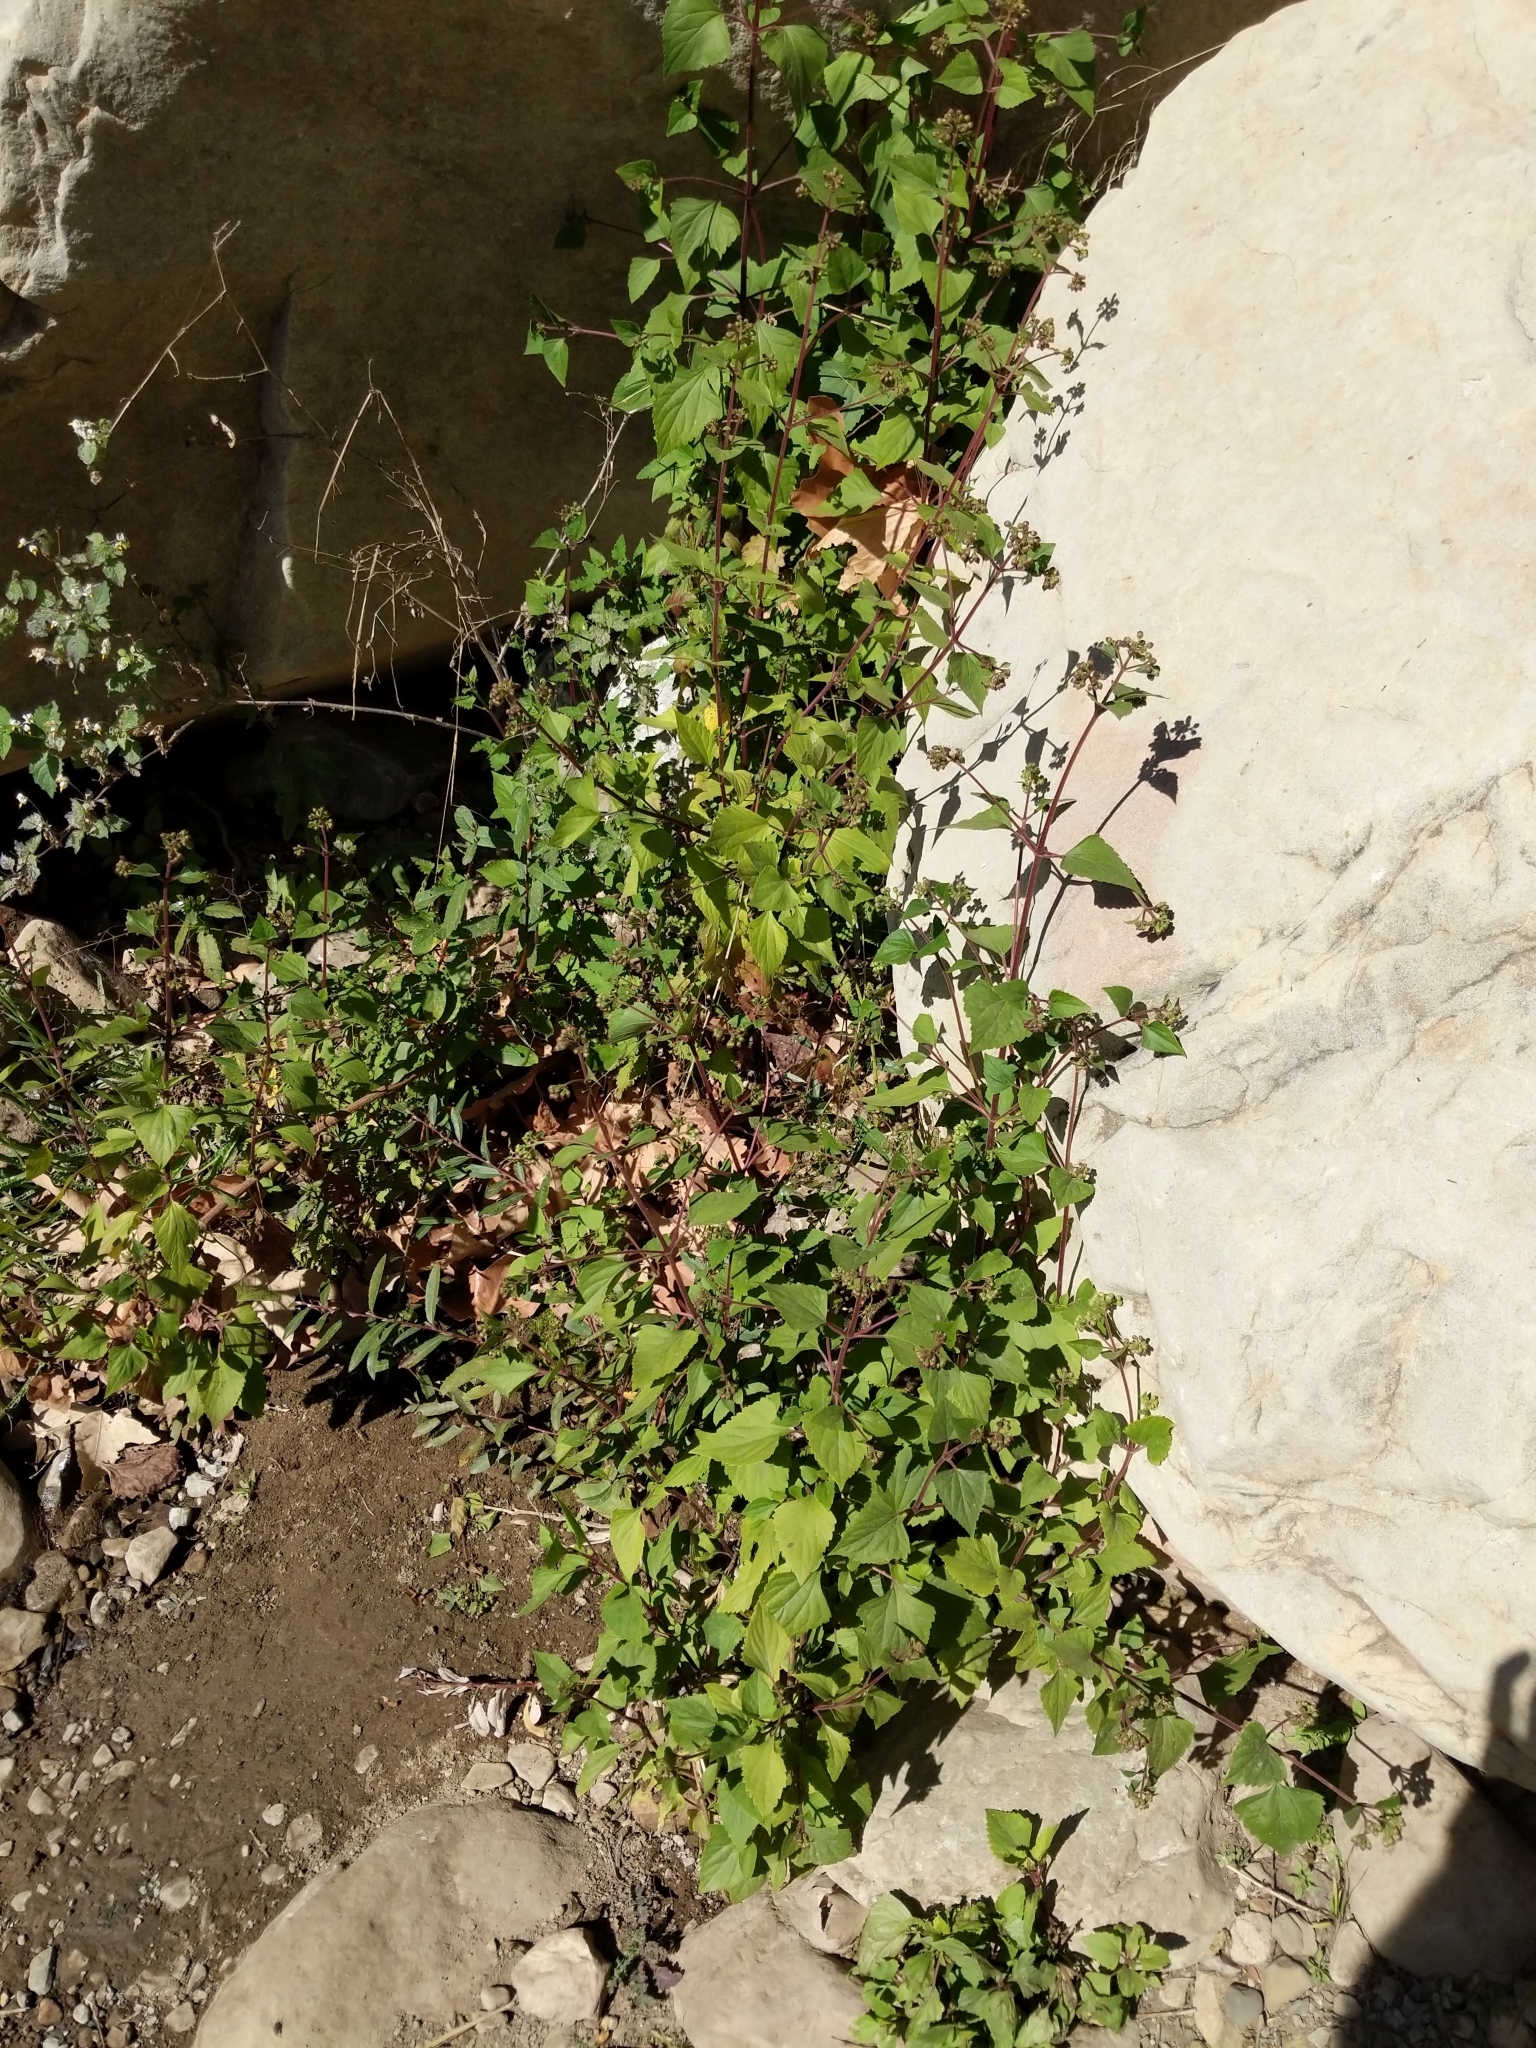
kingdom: Plantae
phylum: Tracheophyta
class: Magnoliopsida
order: Asterales
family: Asteraceae
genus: Ageratina
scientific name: Ageratina adenophora
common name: Sticky snakeroot
